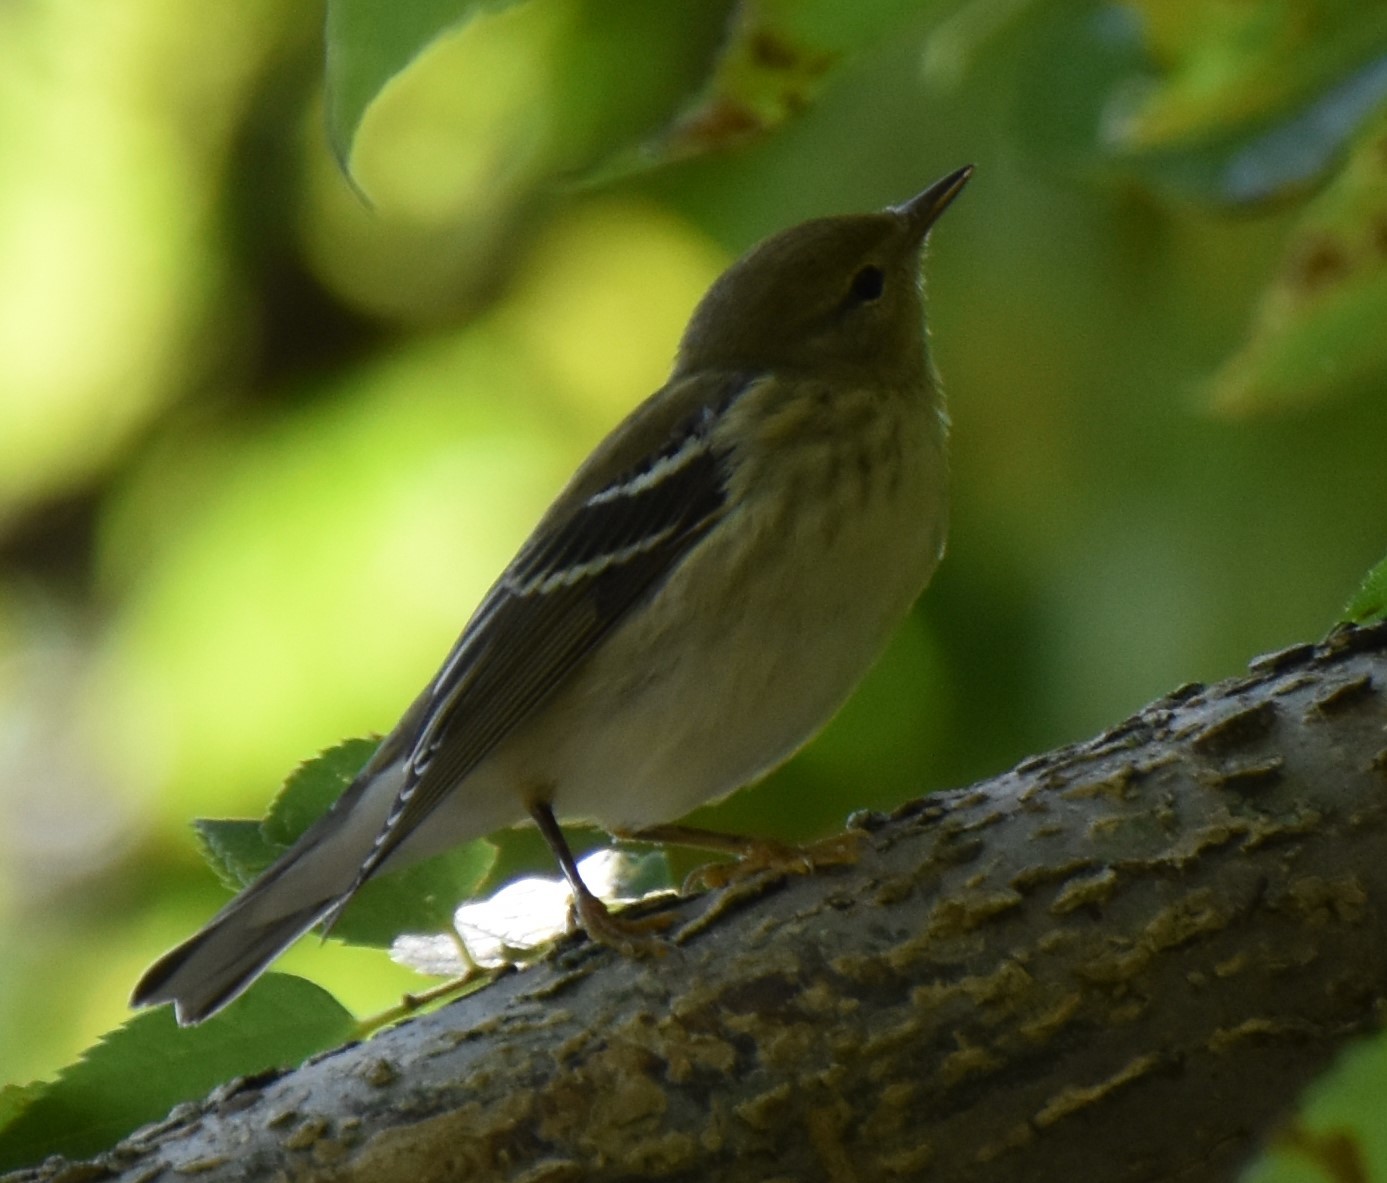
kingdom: Animalia
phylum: Chordata
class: Aves
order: Passeriformes
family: Parulidae
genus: Setophaga
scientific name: Setophaga striata
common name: Blackpoll warbler
